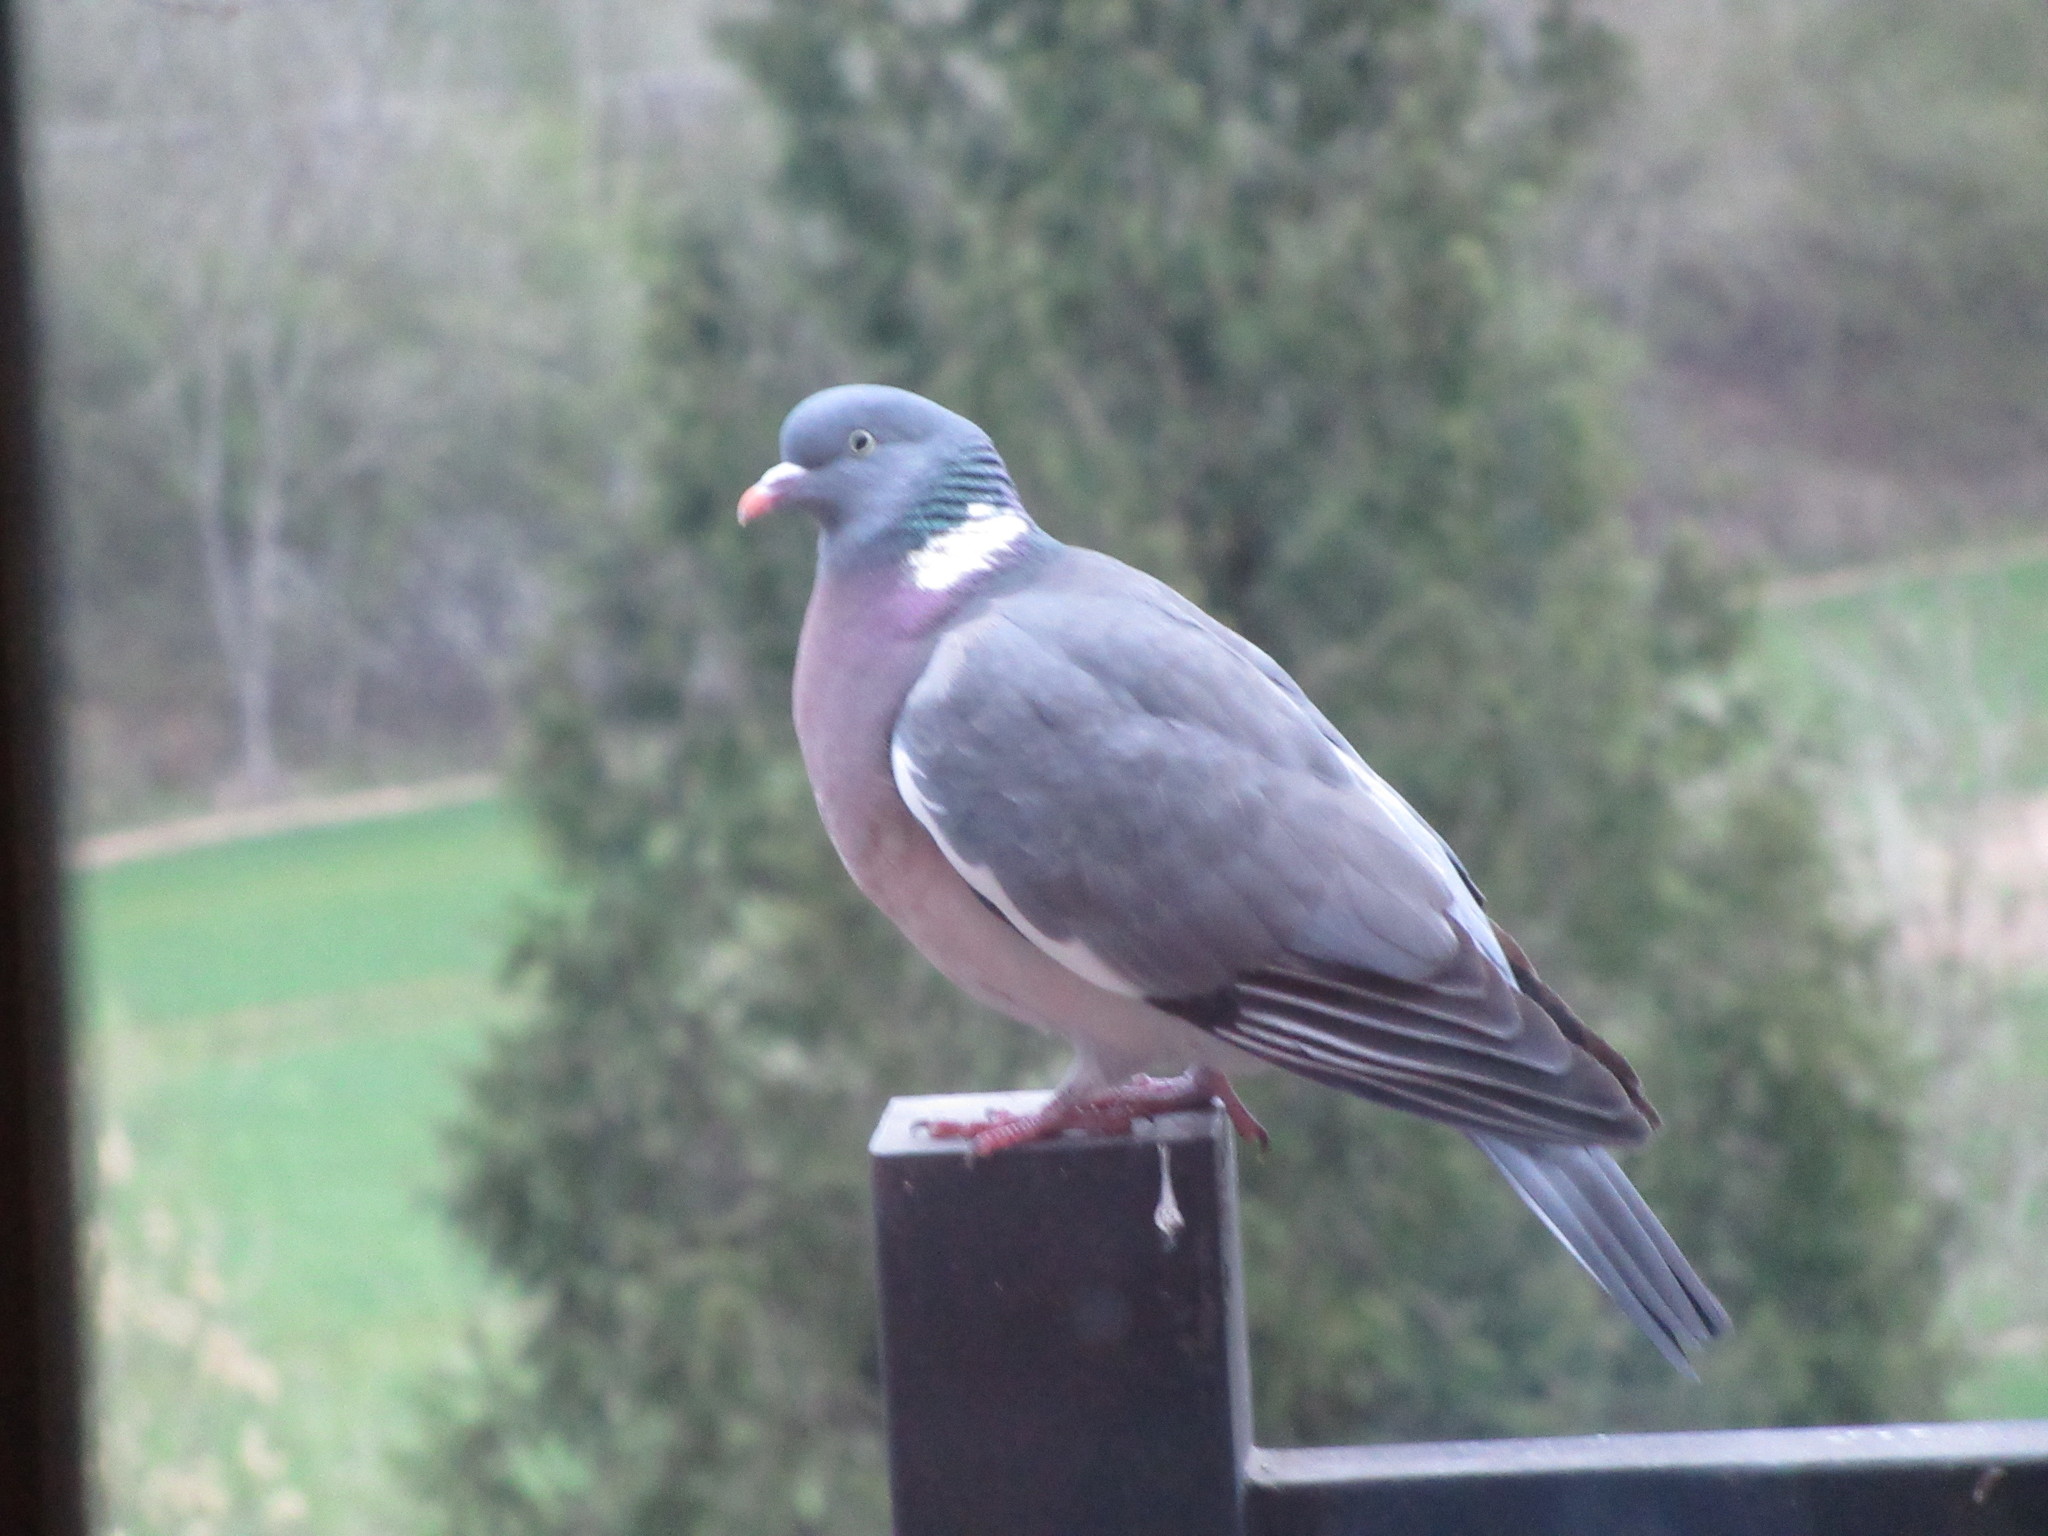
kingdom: Animalia
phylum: Chordata
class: Aves
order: Columbiformes
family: Columbidae
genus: Columba
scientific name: Columba palumbus
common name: Common wood pigeon
